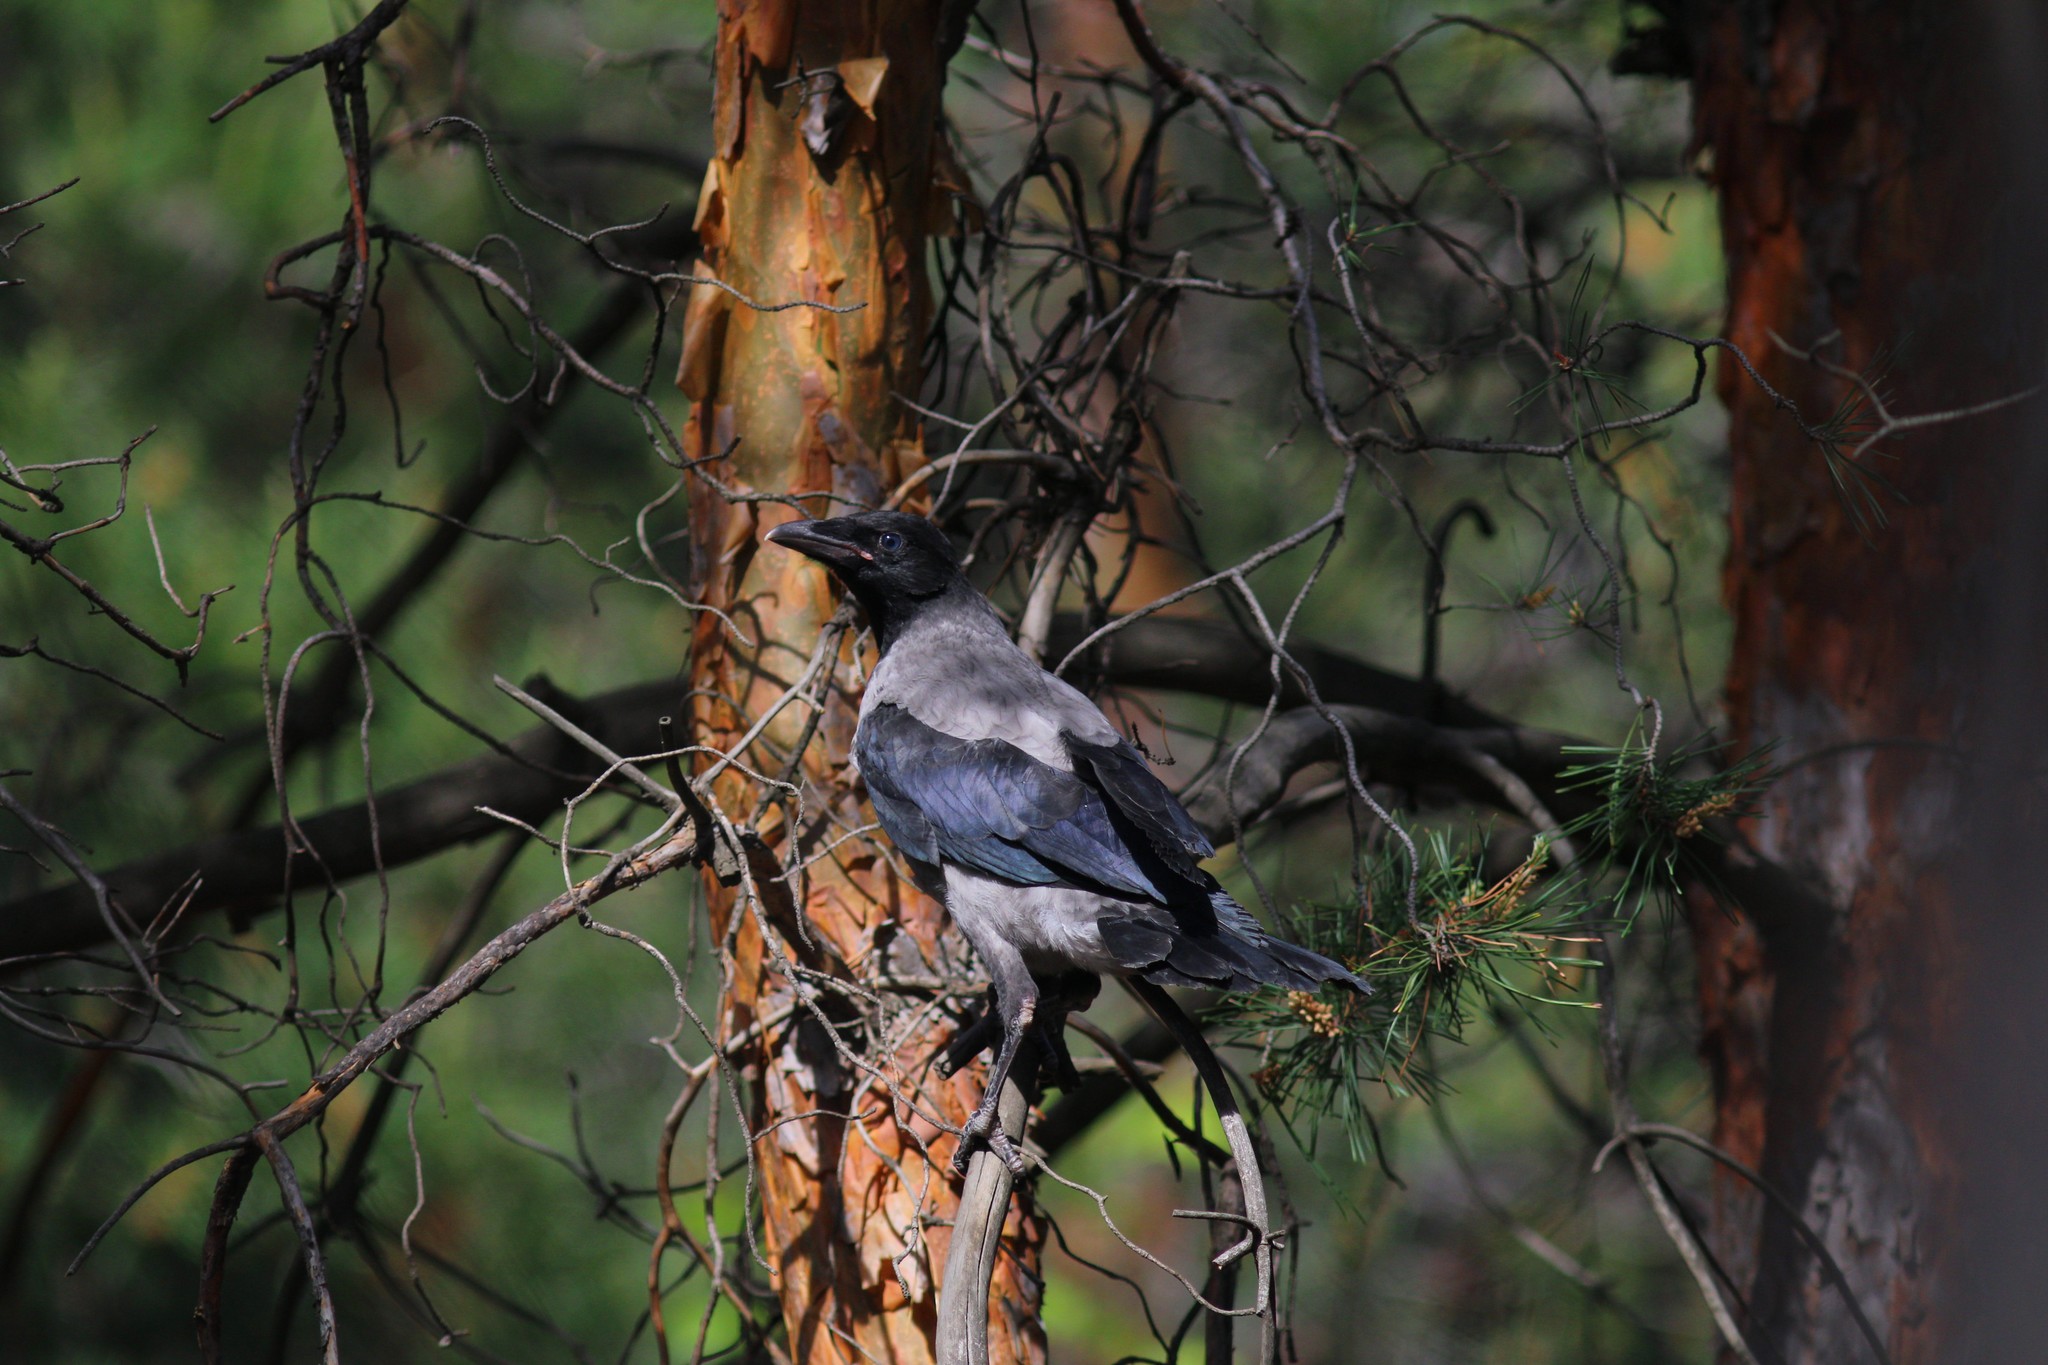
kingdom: Animalia
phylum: Chordata
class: Aves
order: Passeriformes
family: Corvidae
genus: Corvus
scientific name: Corvus cornix
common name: Hooded crow
